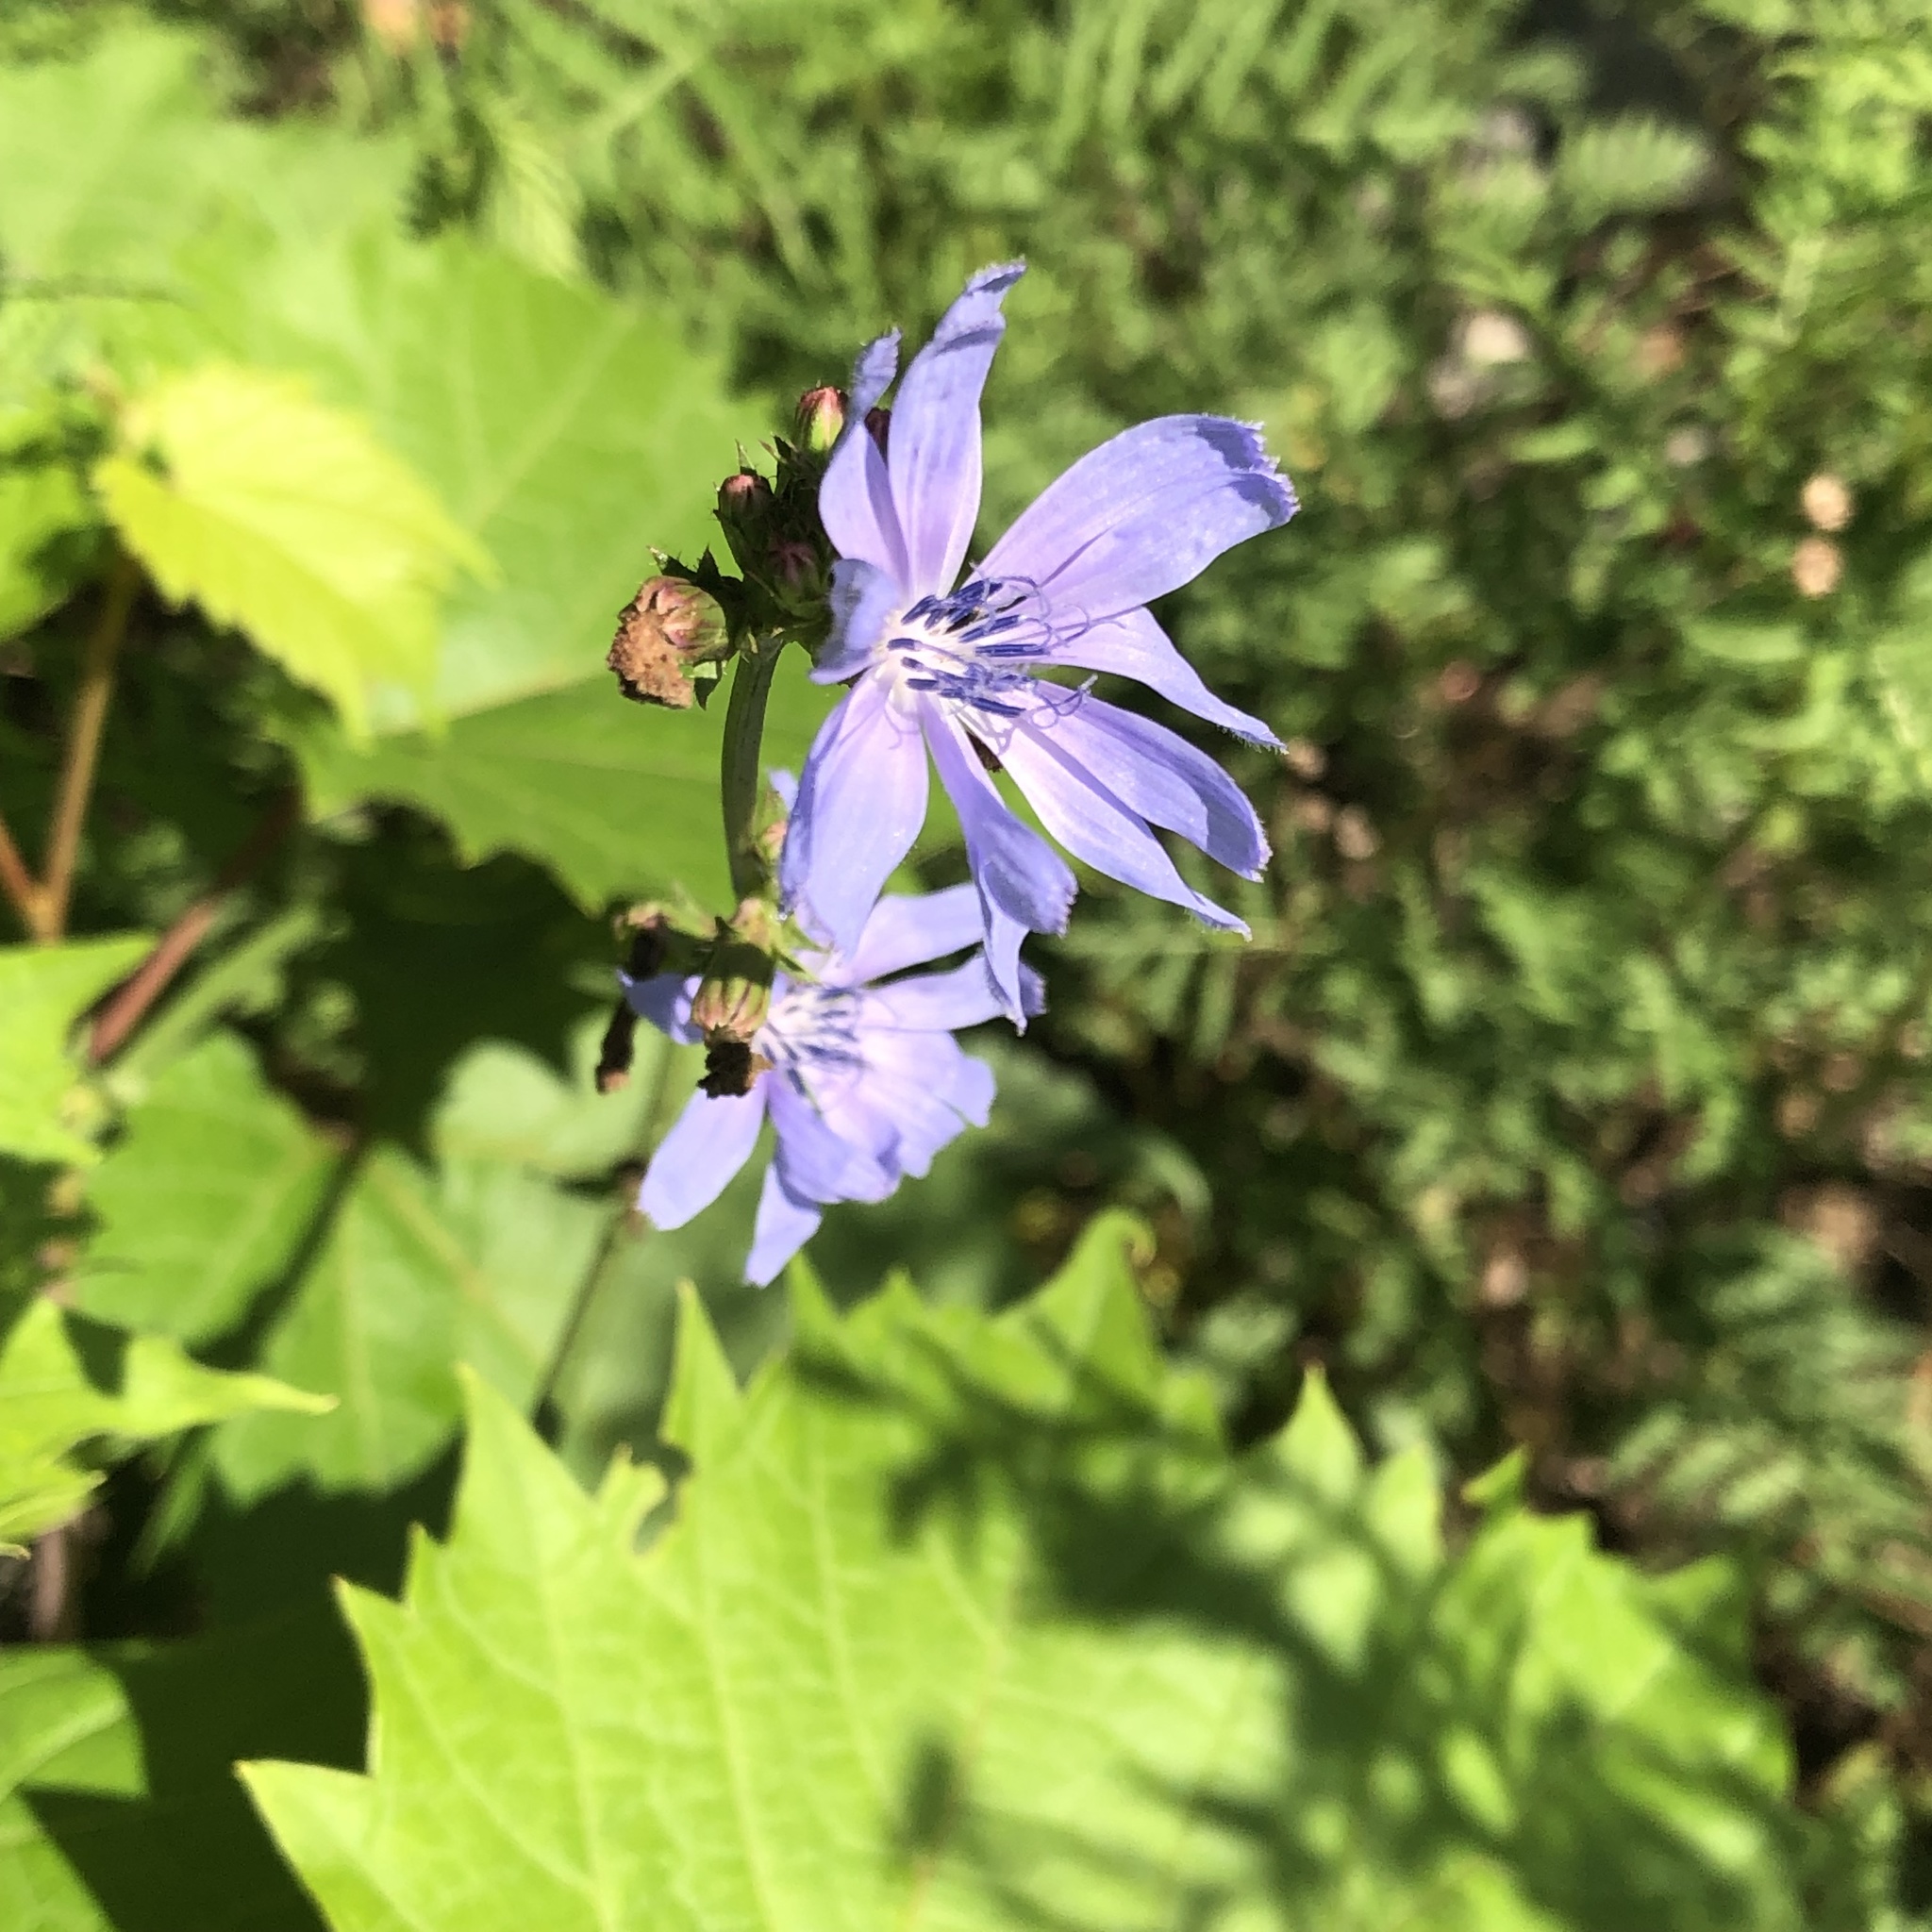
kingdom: Plantae
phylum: Tracheophyta
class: Magnoliopsida
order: Asterales
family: Asteraceae
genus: Cichorium
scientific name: Cichorium intybus
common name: Chicory
